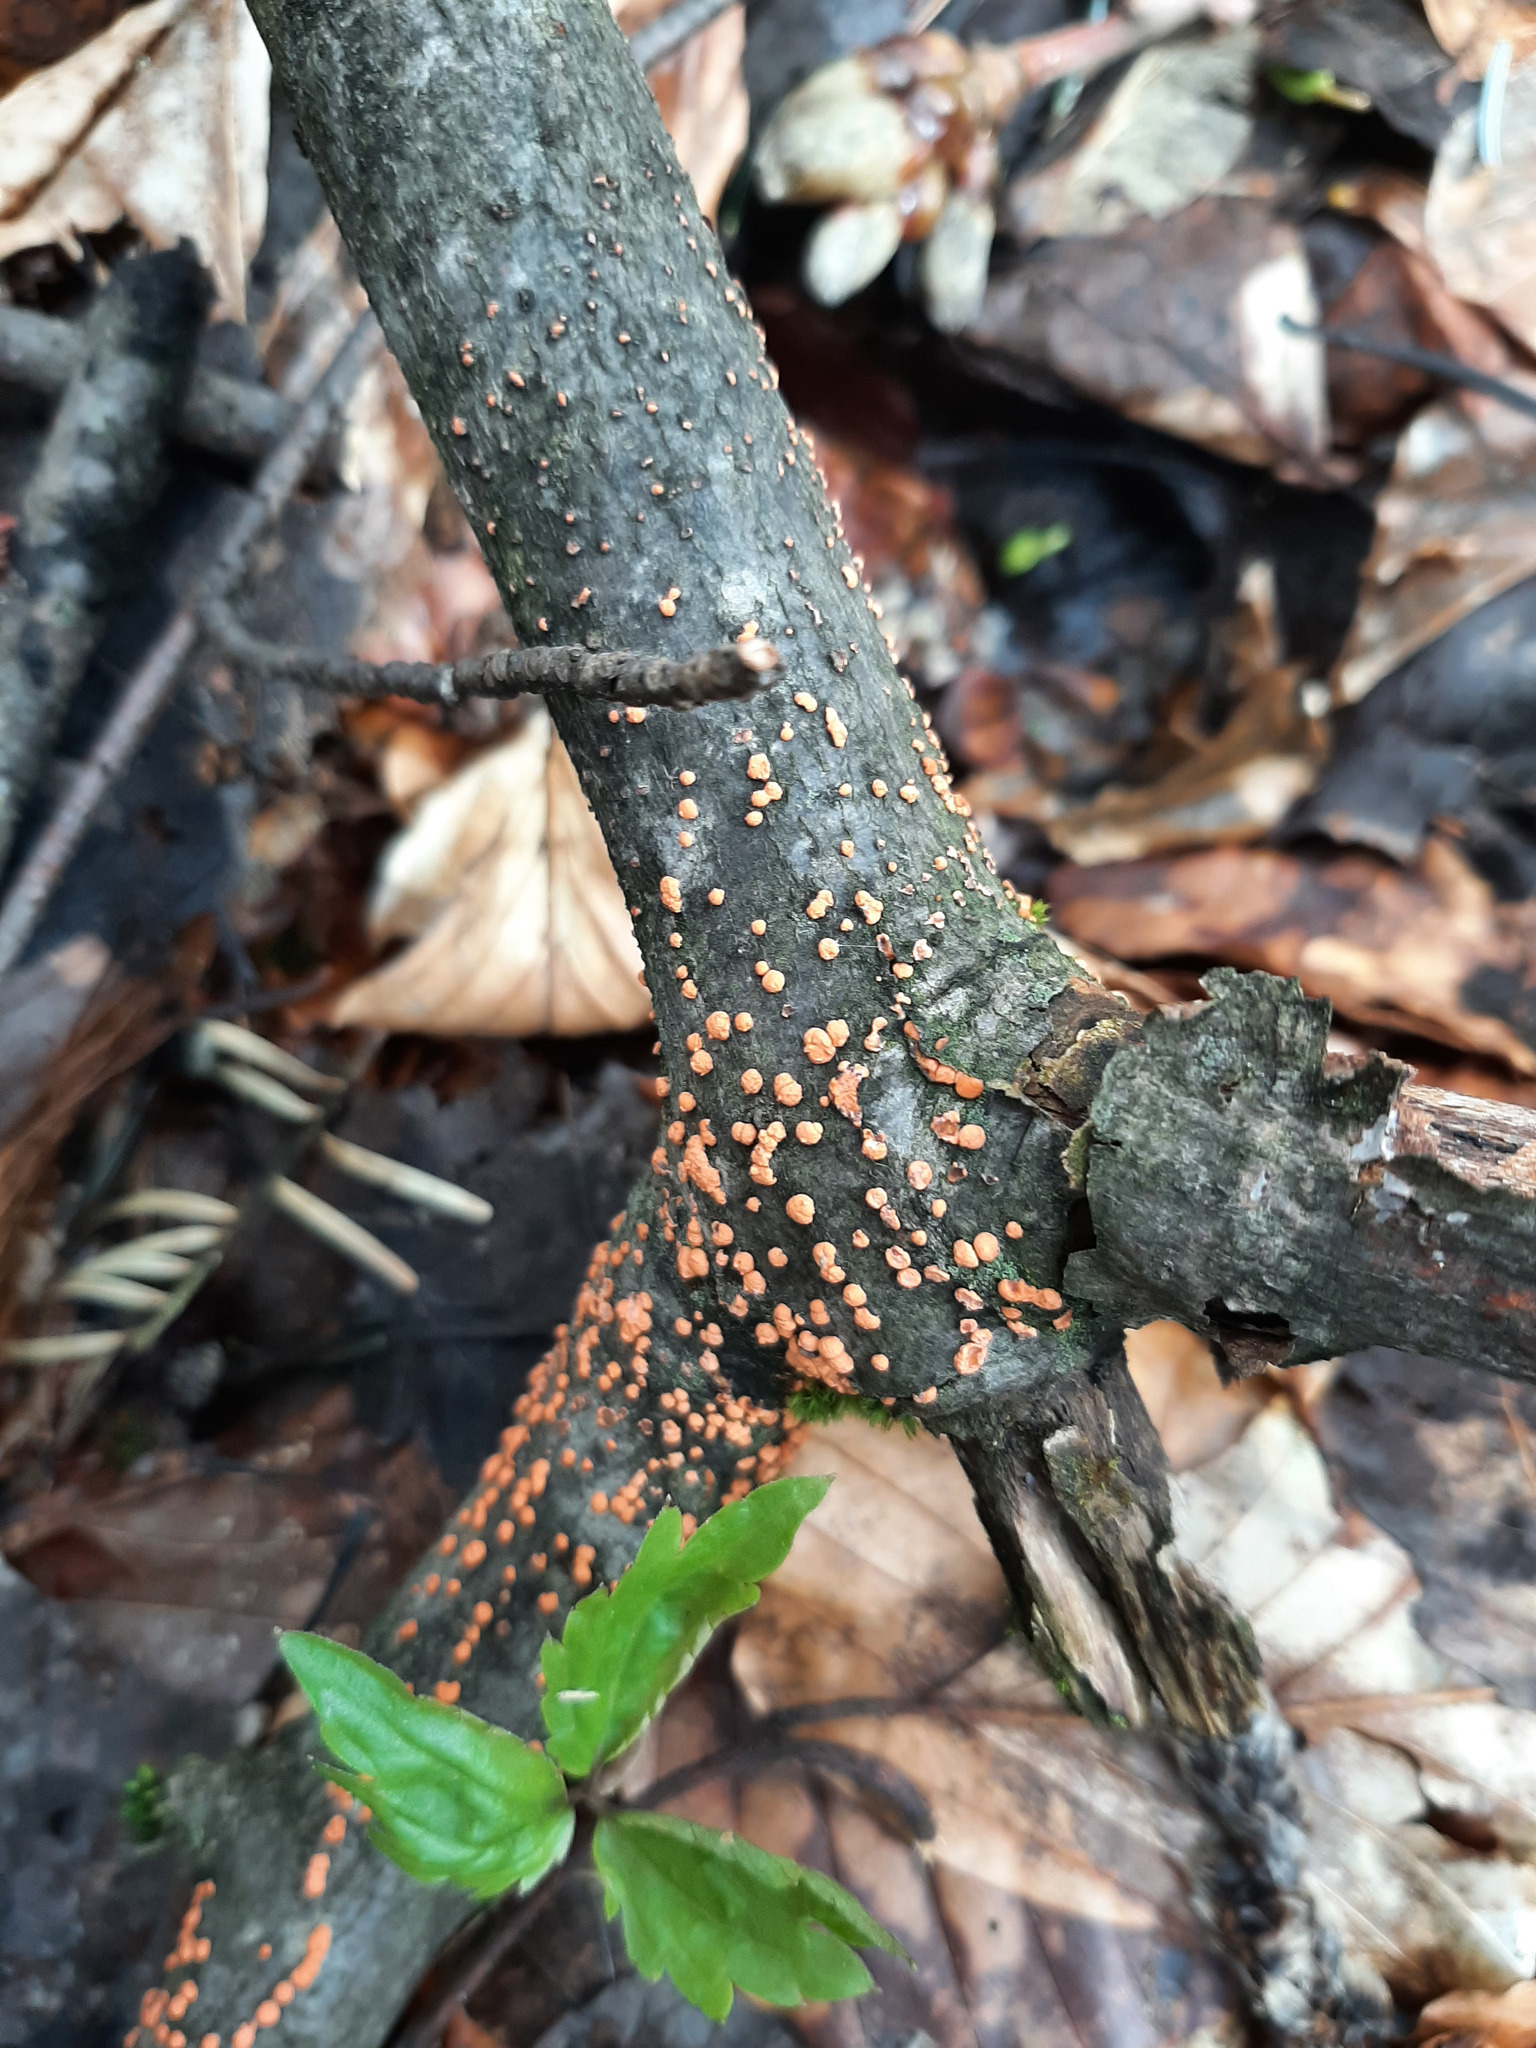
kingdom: Fungi
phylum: Ascomycota
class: Sordariomycetes
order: Hypocreales
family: Nectriaceae
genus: Nectria
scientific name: Nectria cinnabarina
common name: Coral spot
